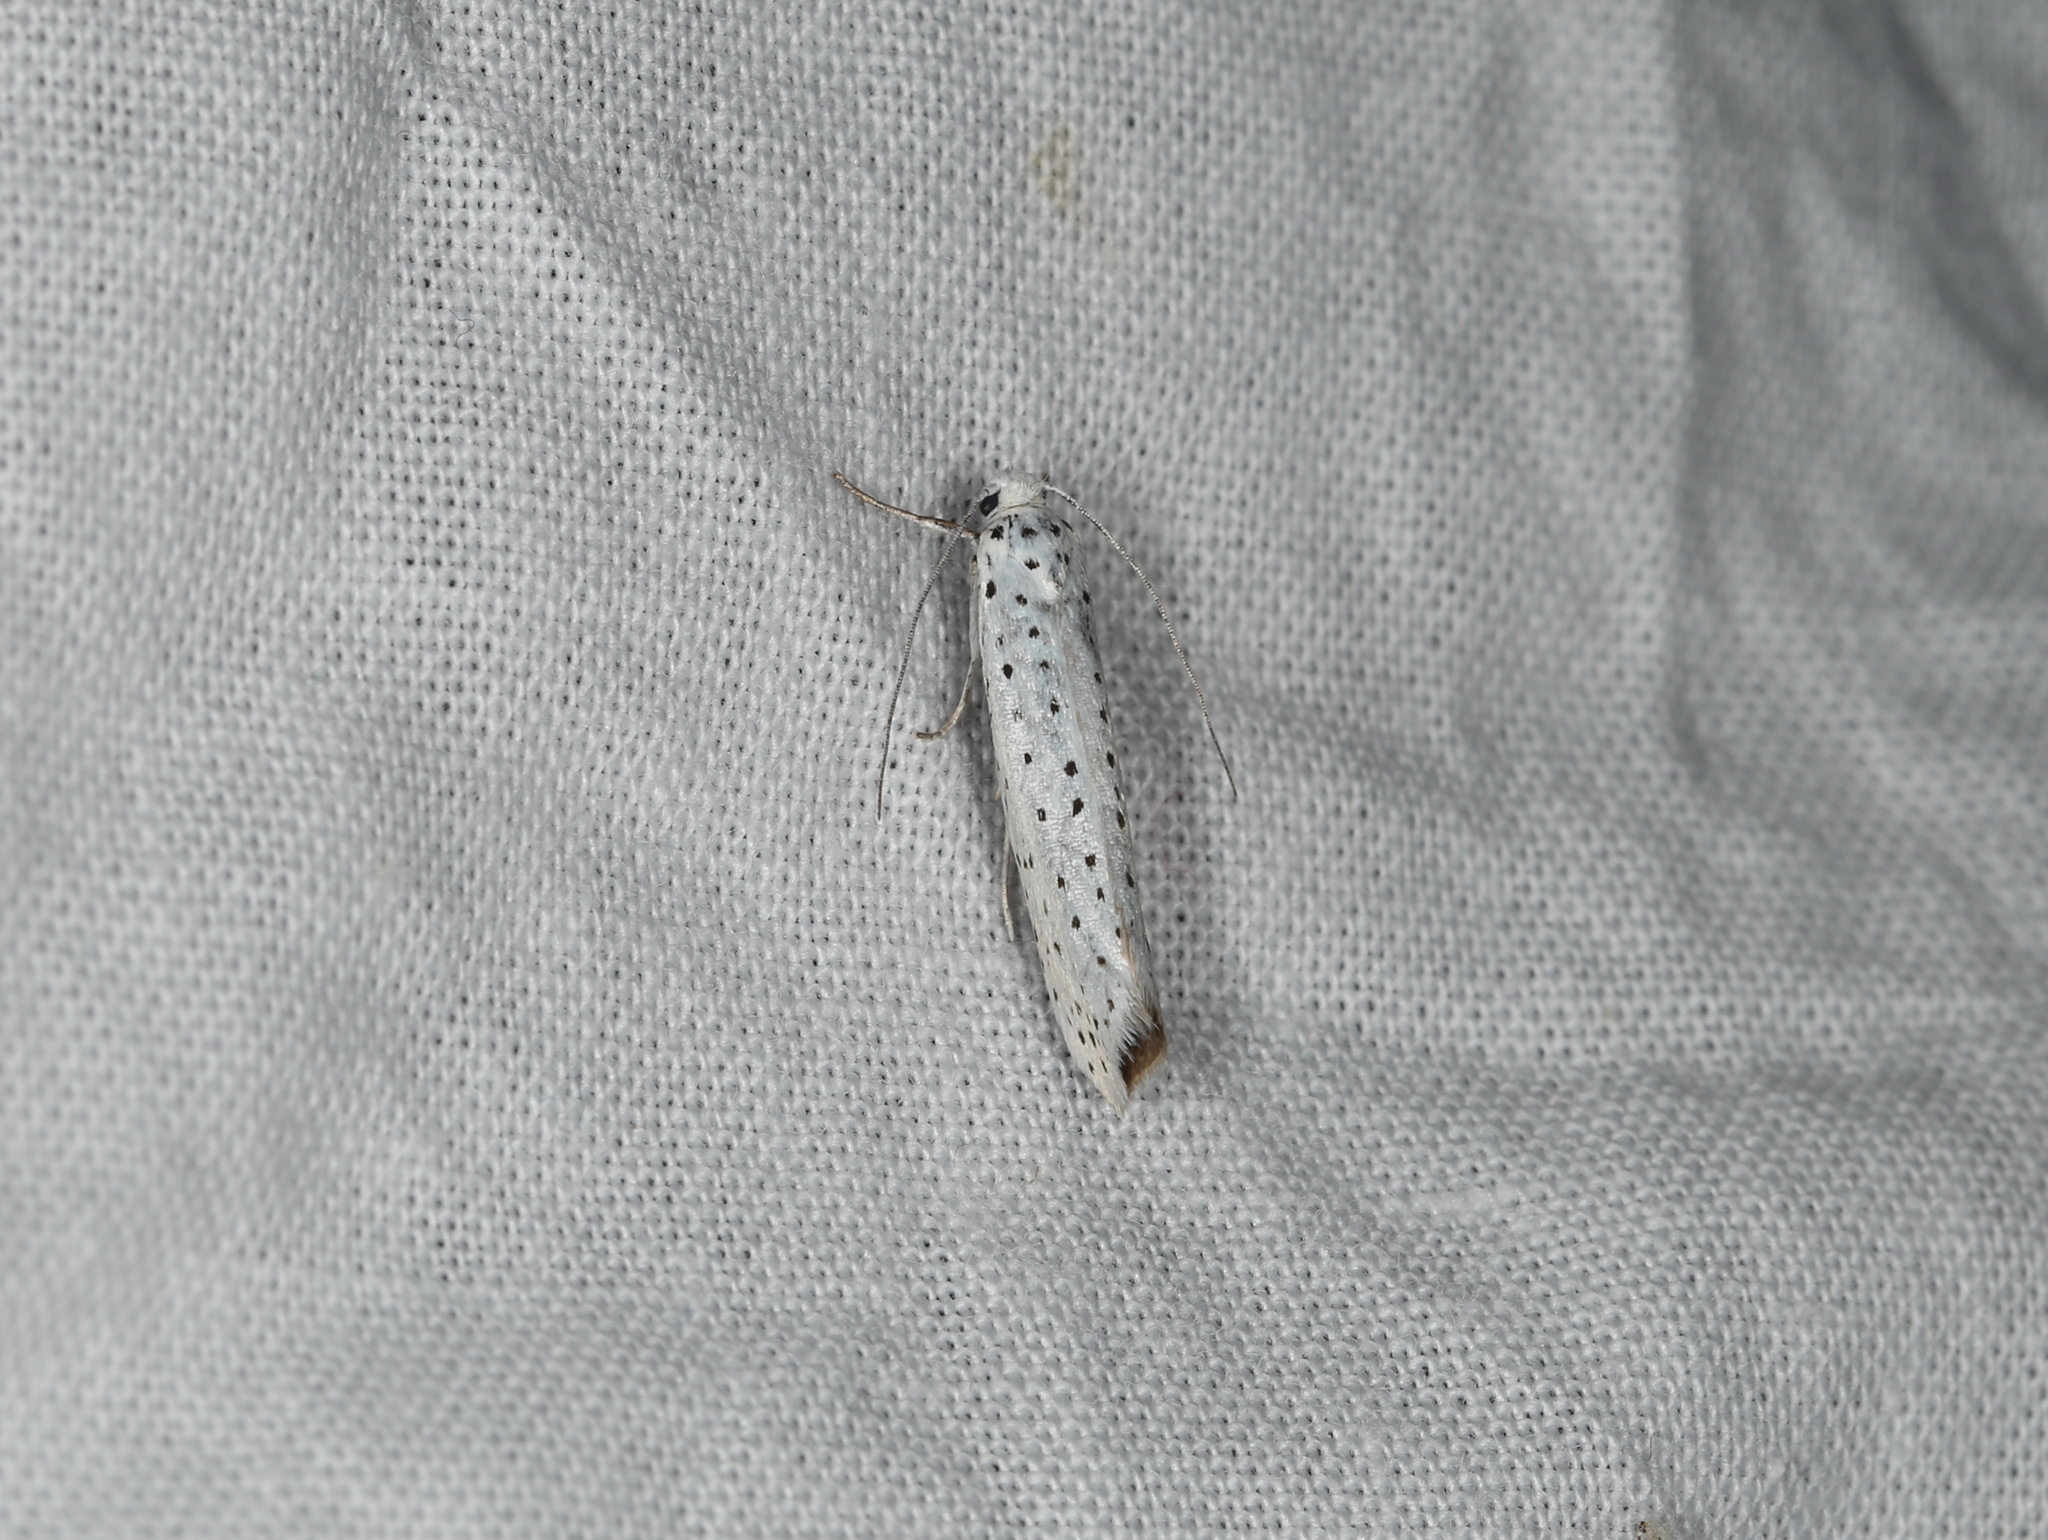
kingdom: Animalia
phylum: Arthropoda
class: Insecta
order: Lepidoptera
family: Yponomeutidae
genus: Yponomeuta
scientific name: Yponomeuta evonymella
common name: Bird-cherry ermine
